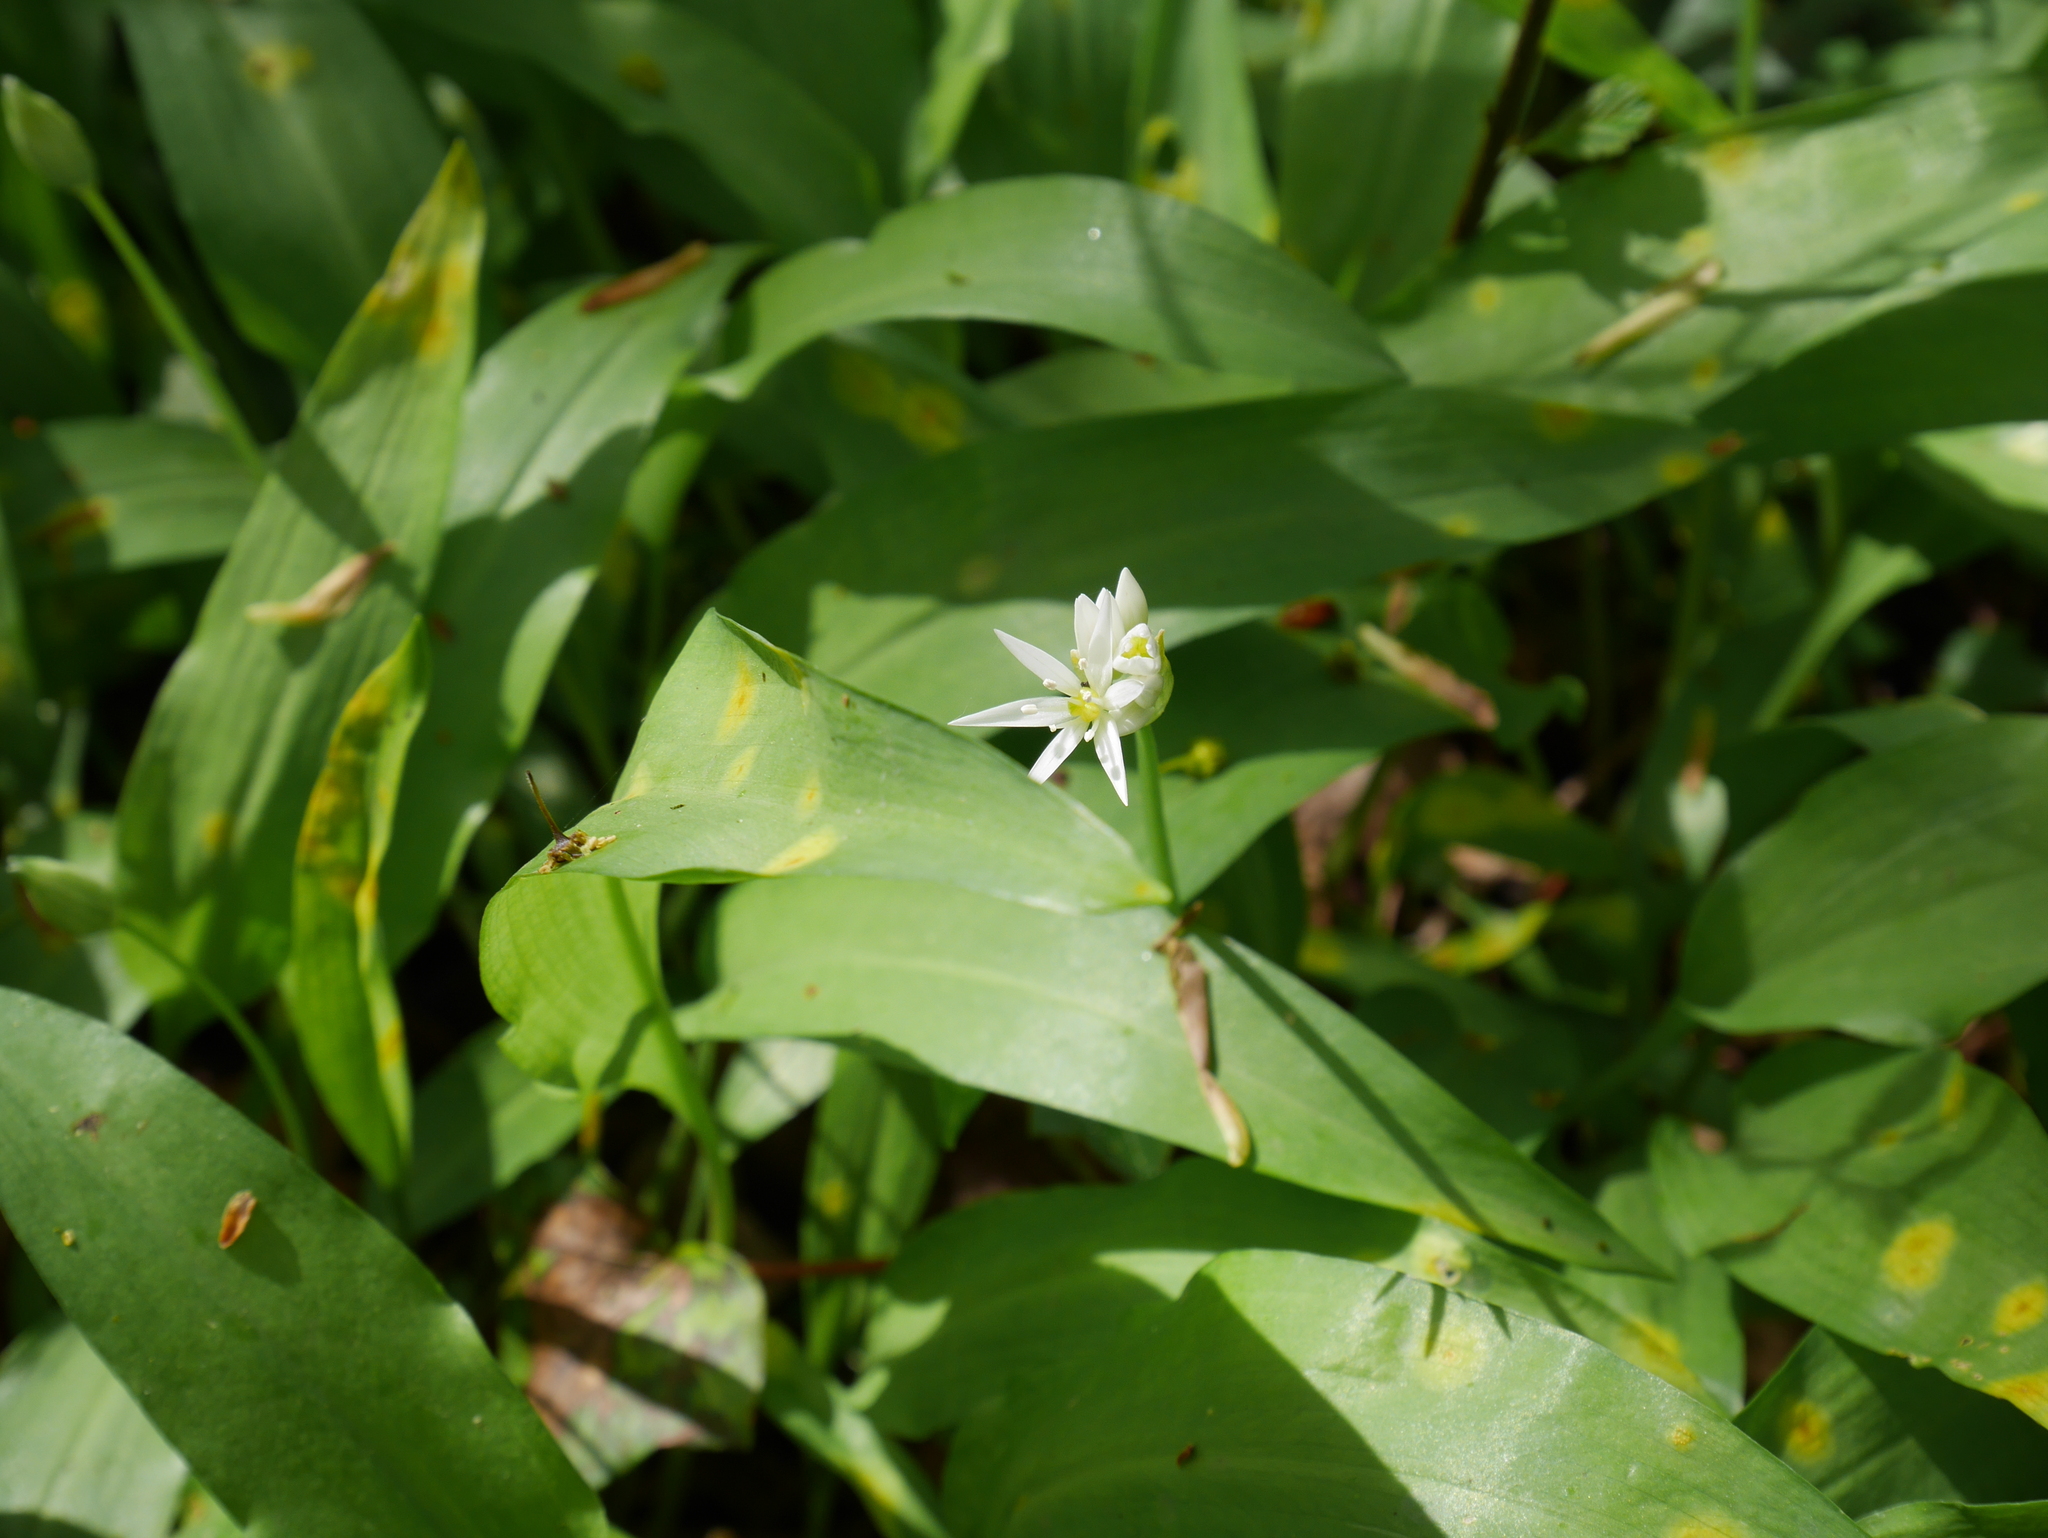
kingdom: Plantae
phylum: Tracheophyta
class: Liliopsida
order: Asparagales
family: Amaryllidaceae
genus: Allium
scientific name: Allium ursinum
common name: Ramsons
